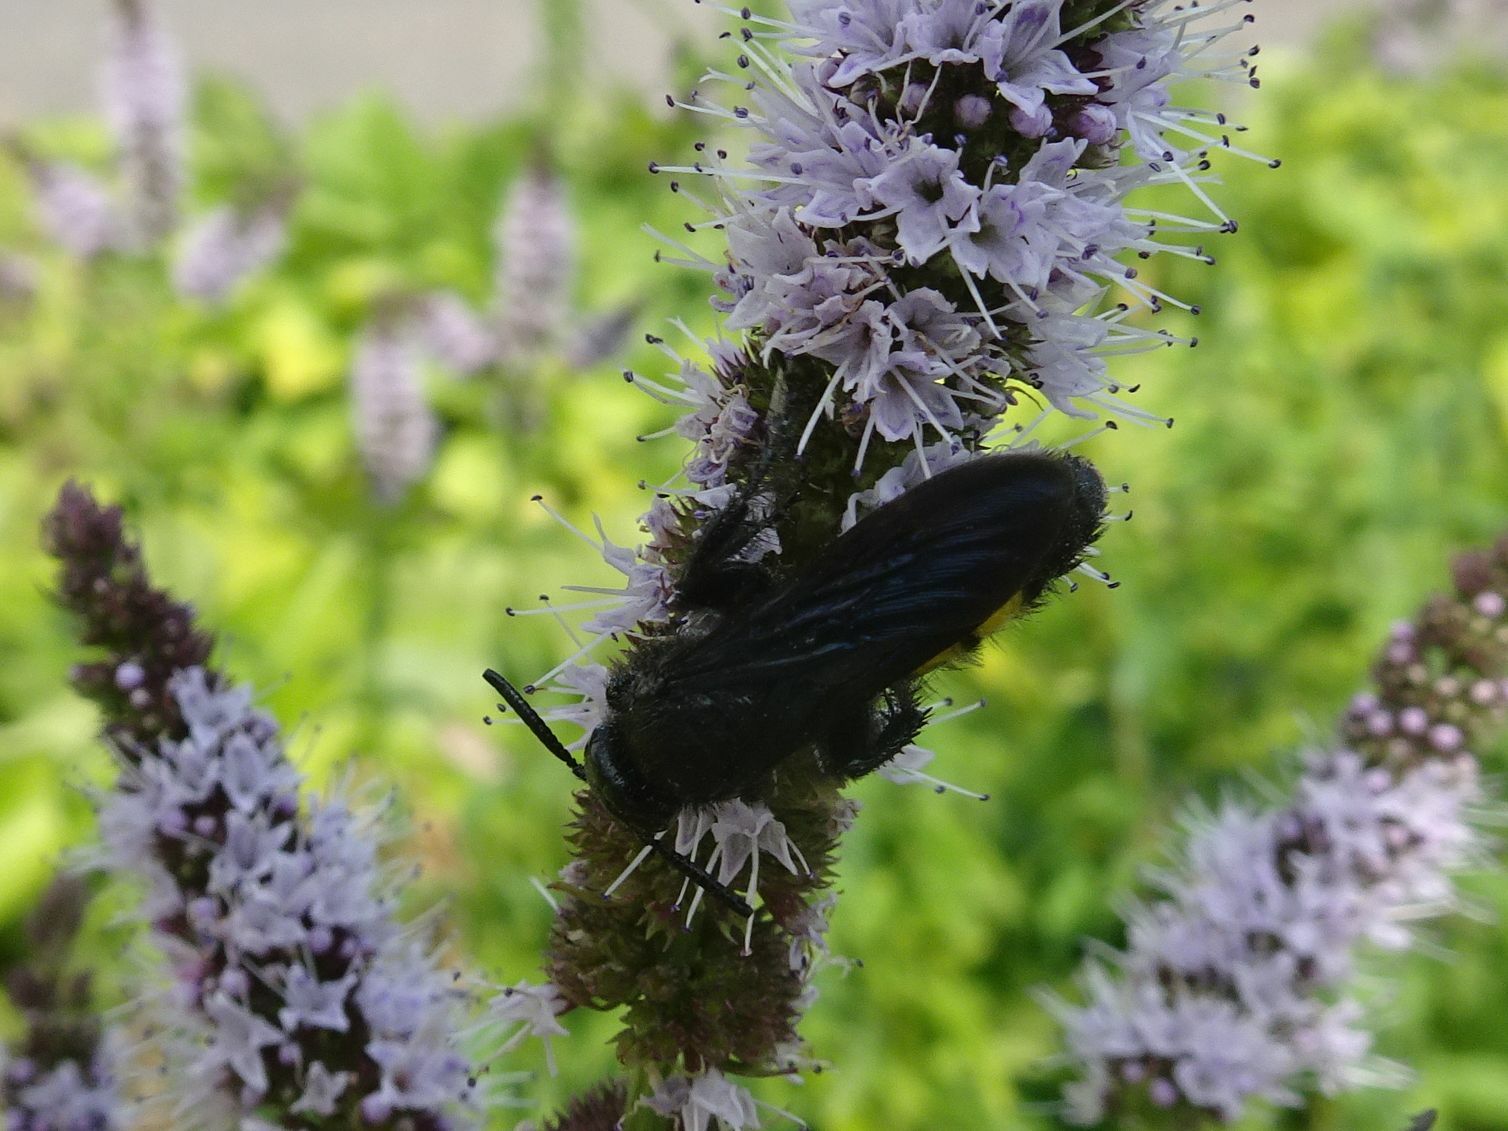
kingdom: Animalia
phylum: Arthropoda
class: Insecta
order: Hymenoptera
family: Scoliidae
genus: Scolia
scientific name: Scolia hirta
